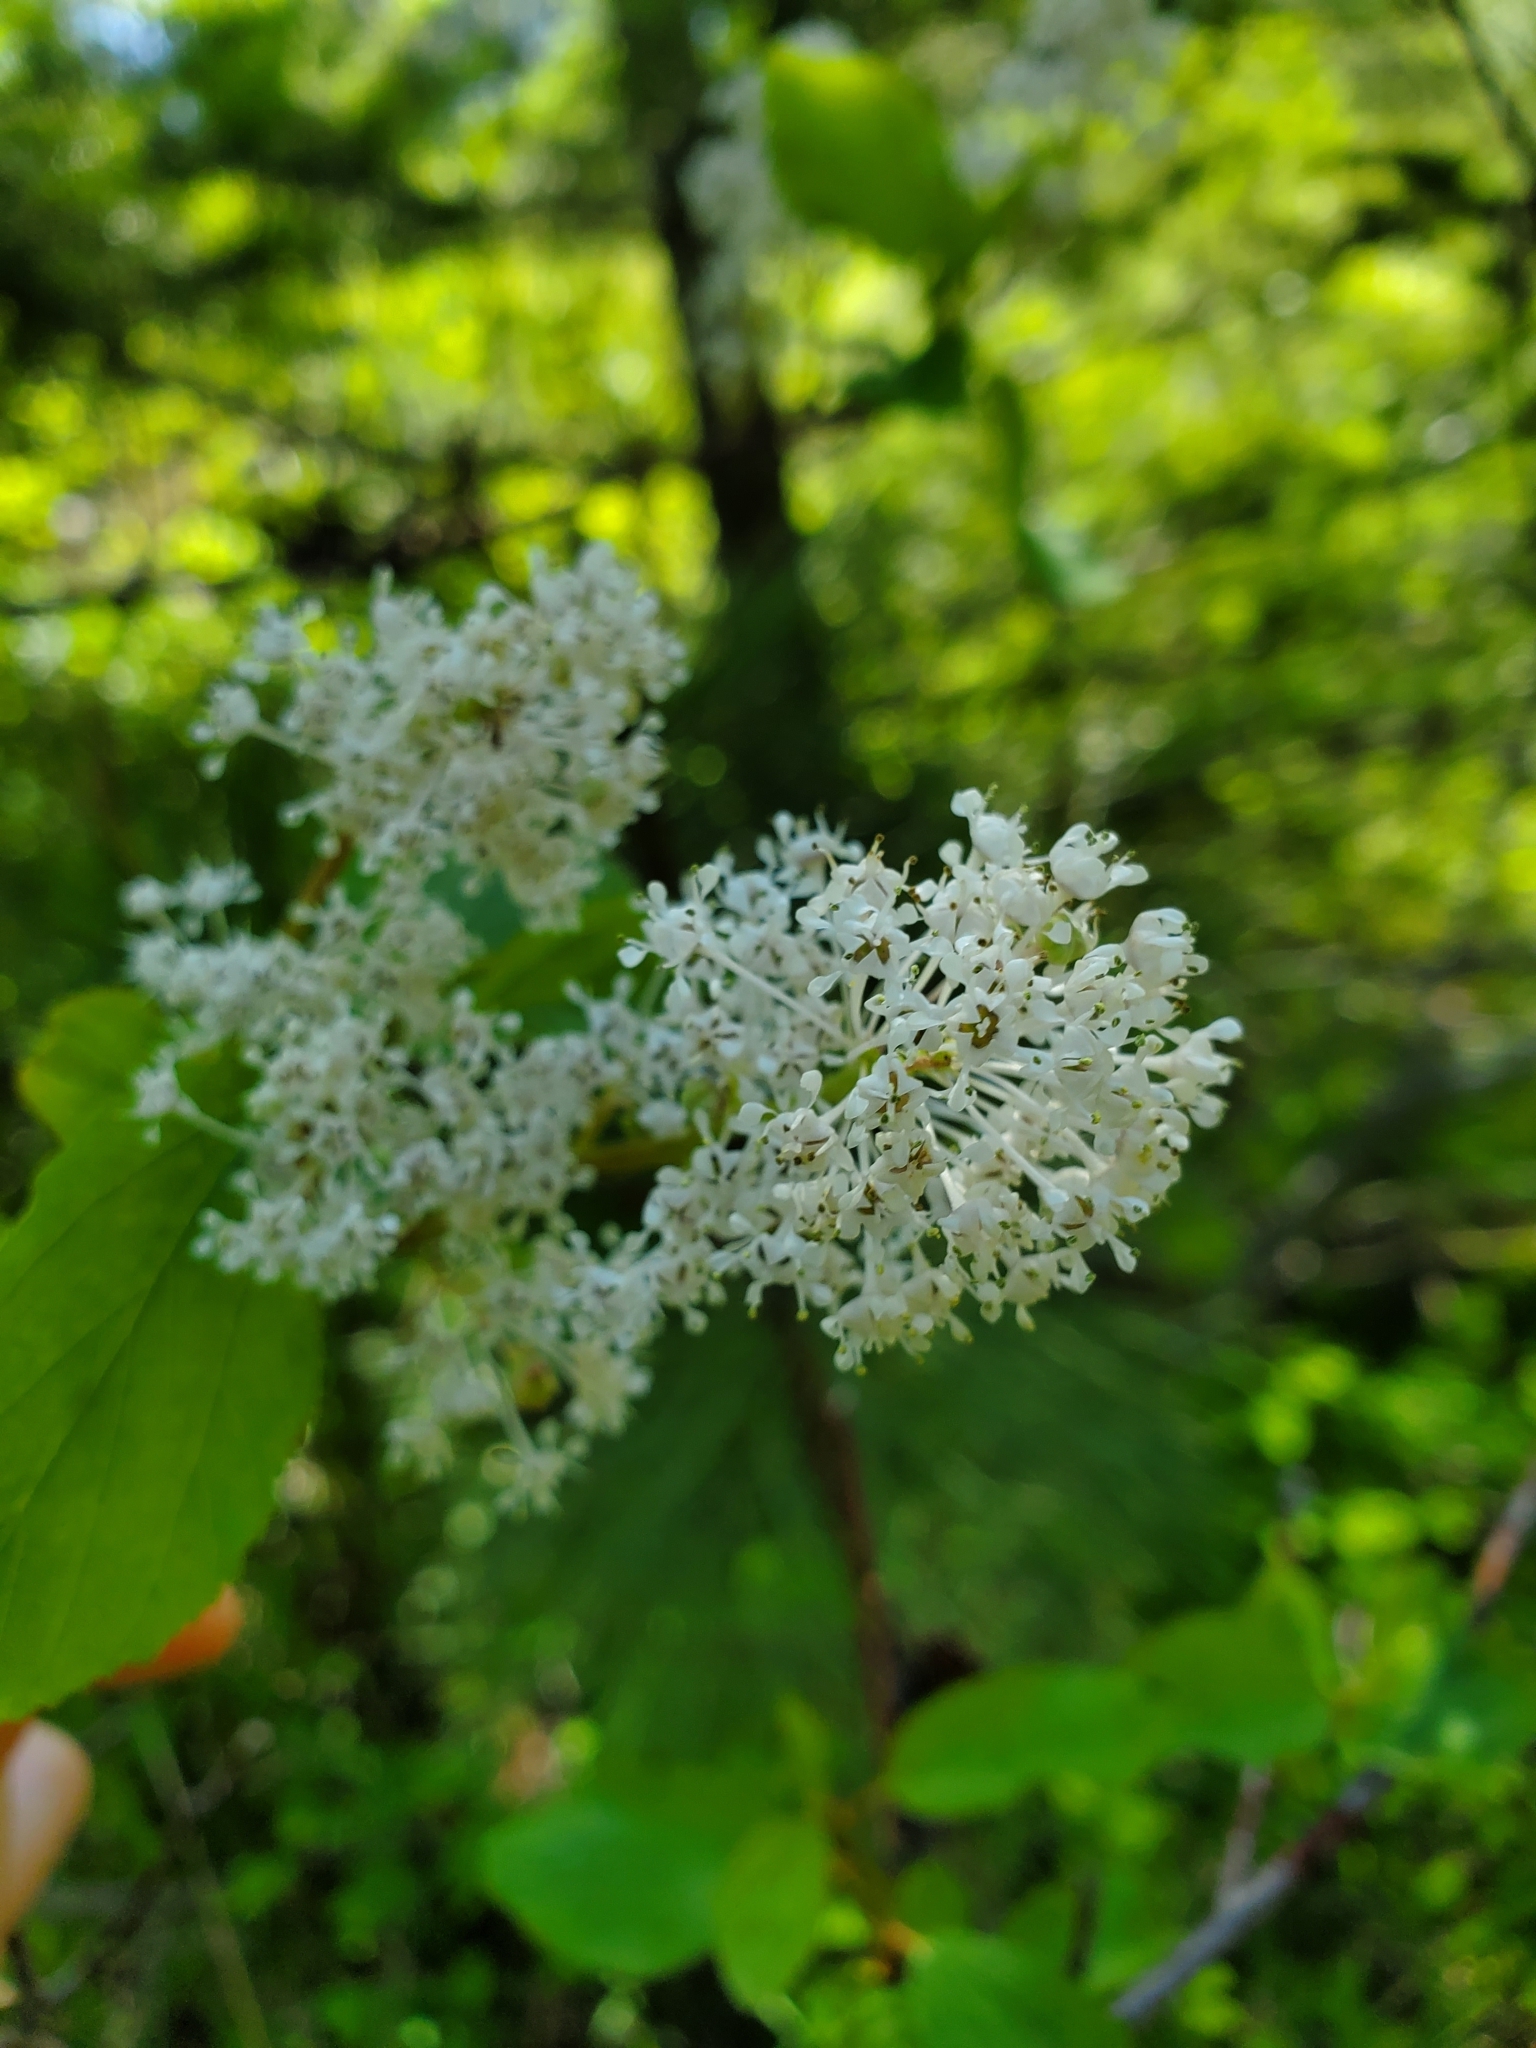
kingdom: Plantae
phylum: Tracheophyta
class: Magnoliopsida
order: Rosales
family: Rhamnaceae
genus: Ceanothus
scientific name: Ceanothus sanguineus
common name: Teatree
